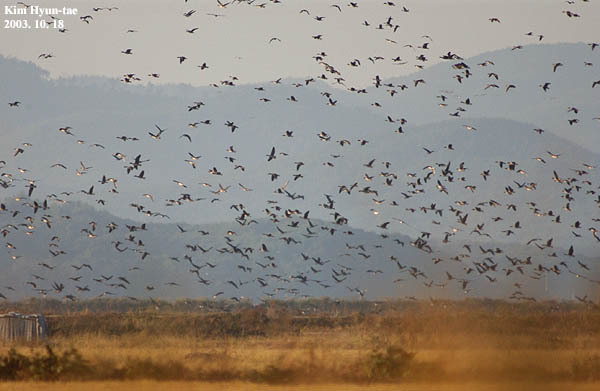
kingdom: Animalia
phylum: Chordata
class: Aves
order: Anseriformes
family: Anatidae
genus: Anser
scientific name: Anser fabalis
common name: Bean goose
